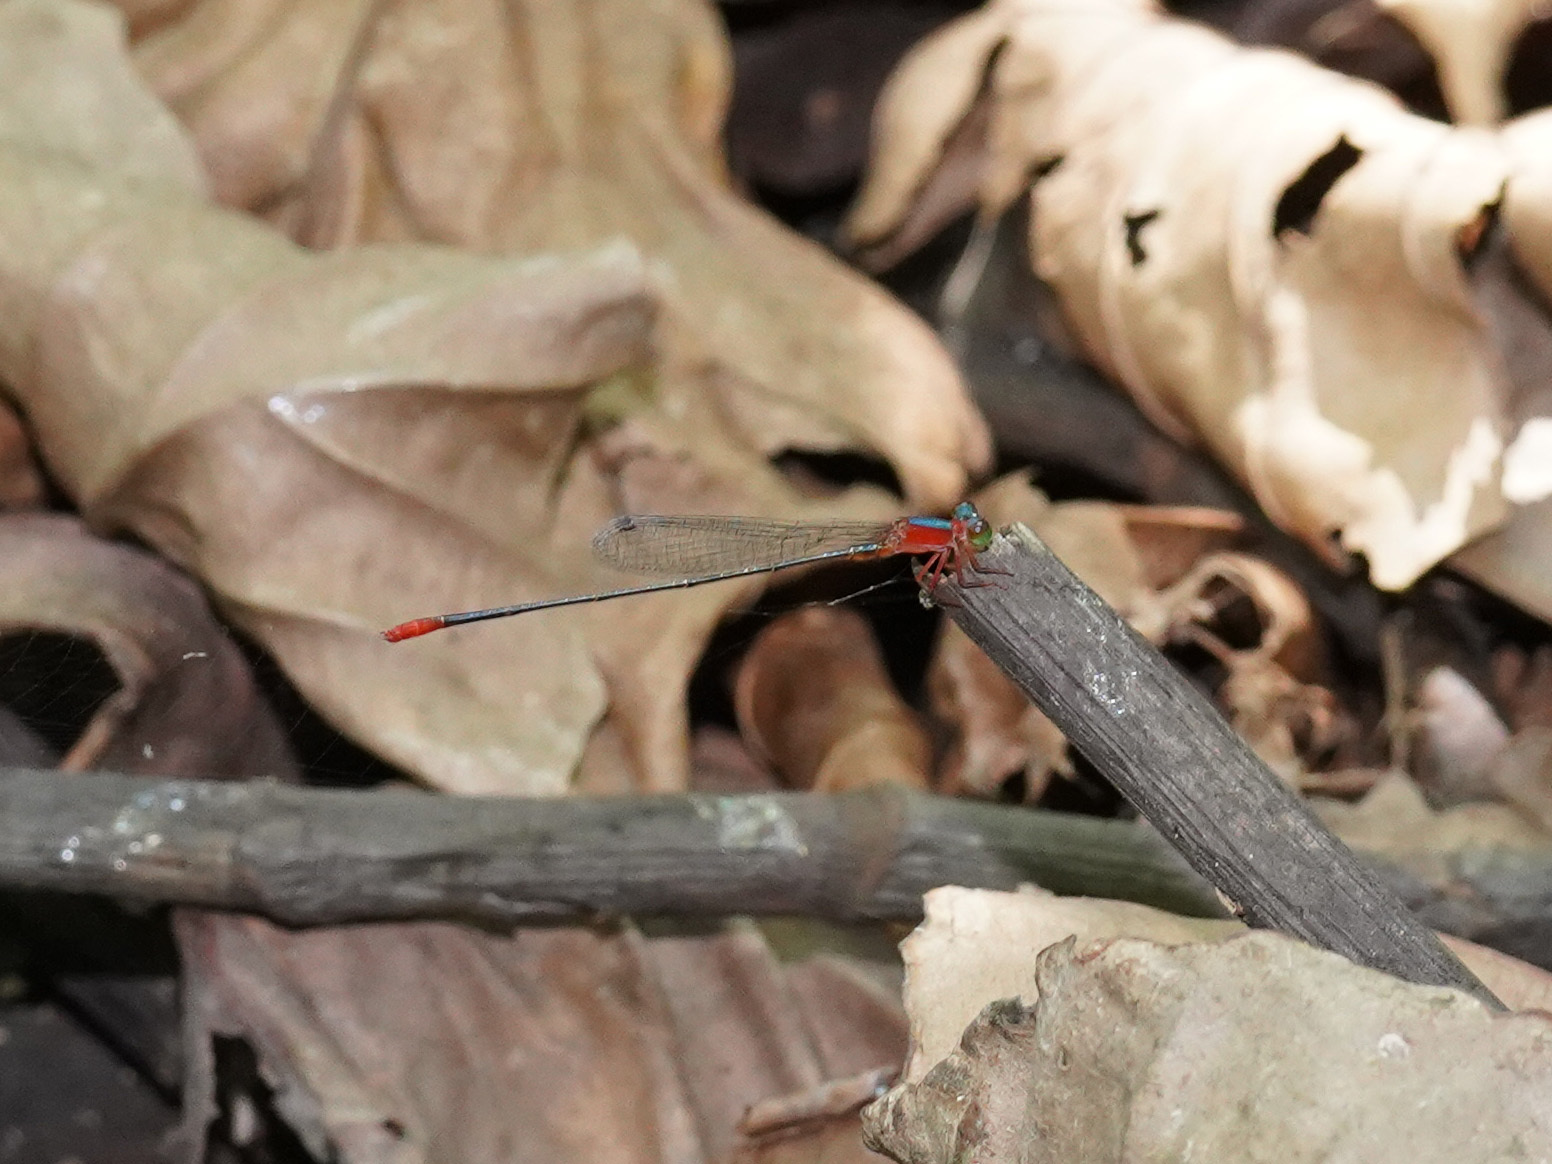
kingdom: Animalia
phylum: Arthropoda
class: Insecta
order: Odonata
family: Coenagrionidae
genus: Teinobasis
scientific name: Teinobasis ruficollis
